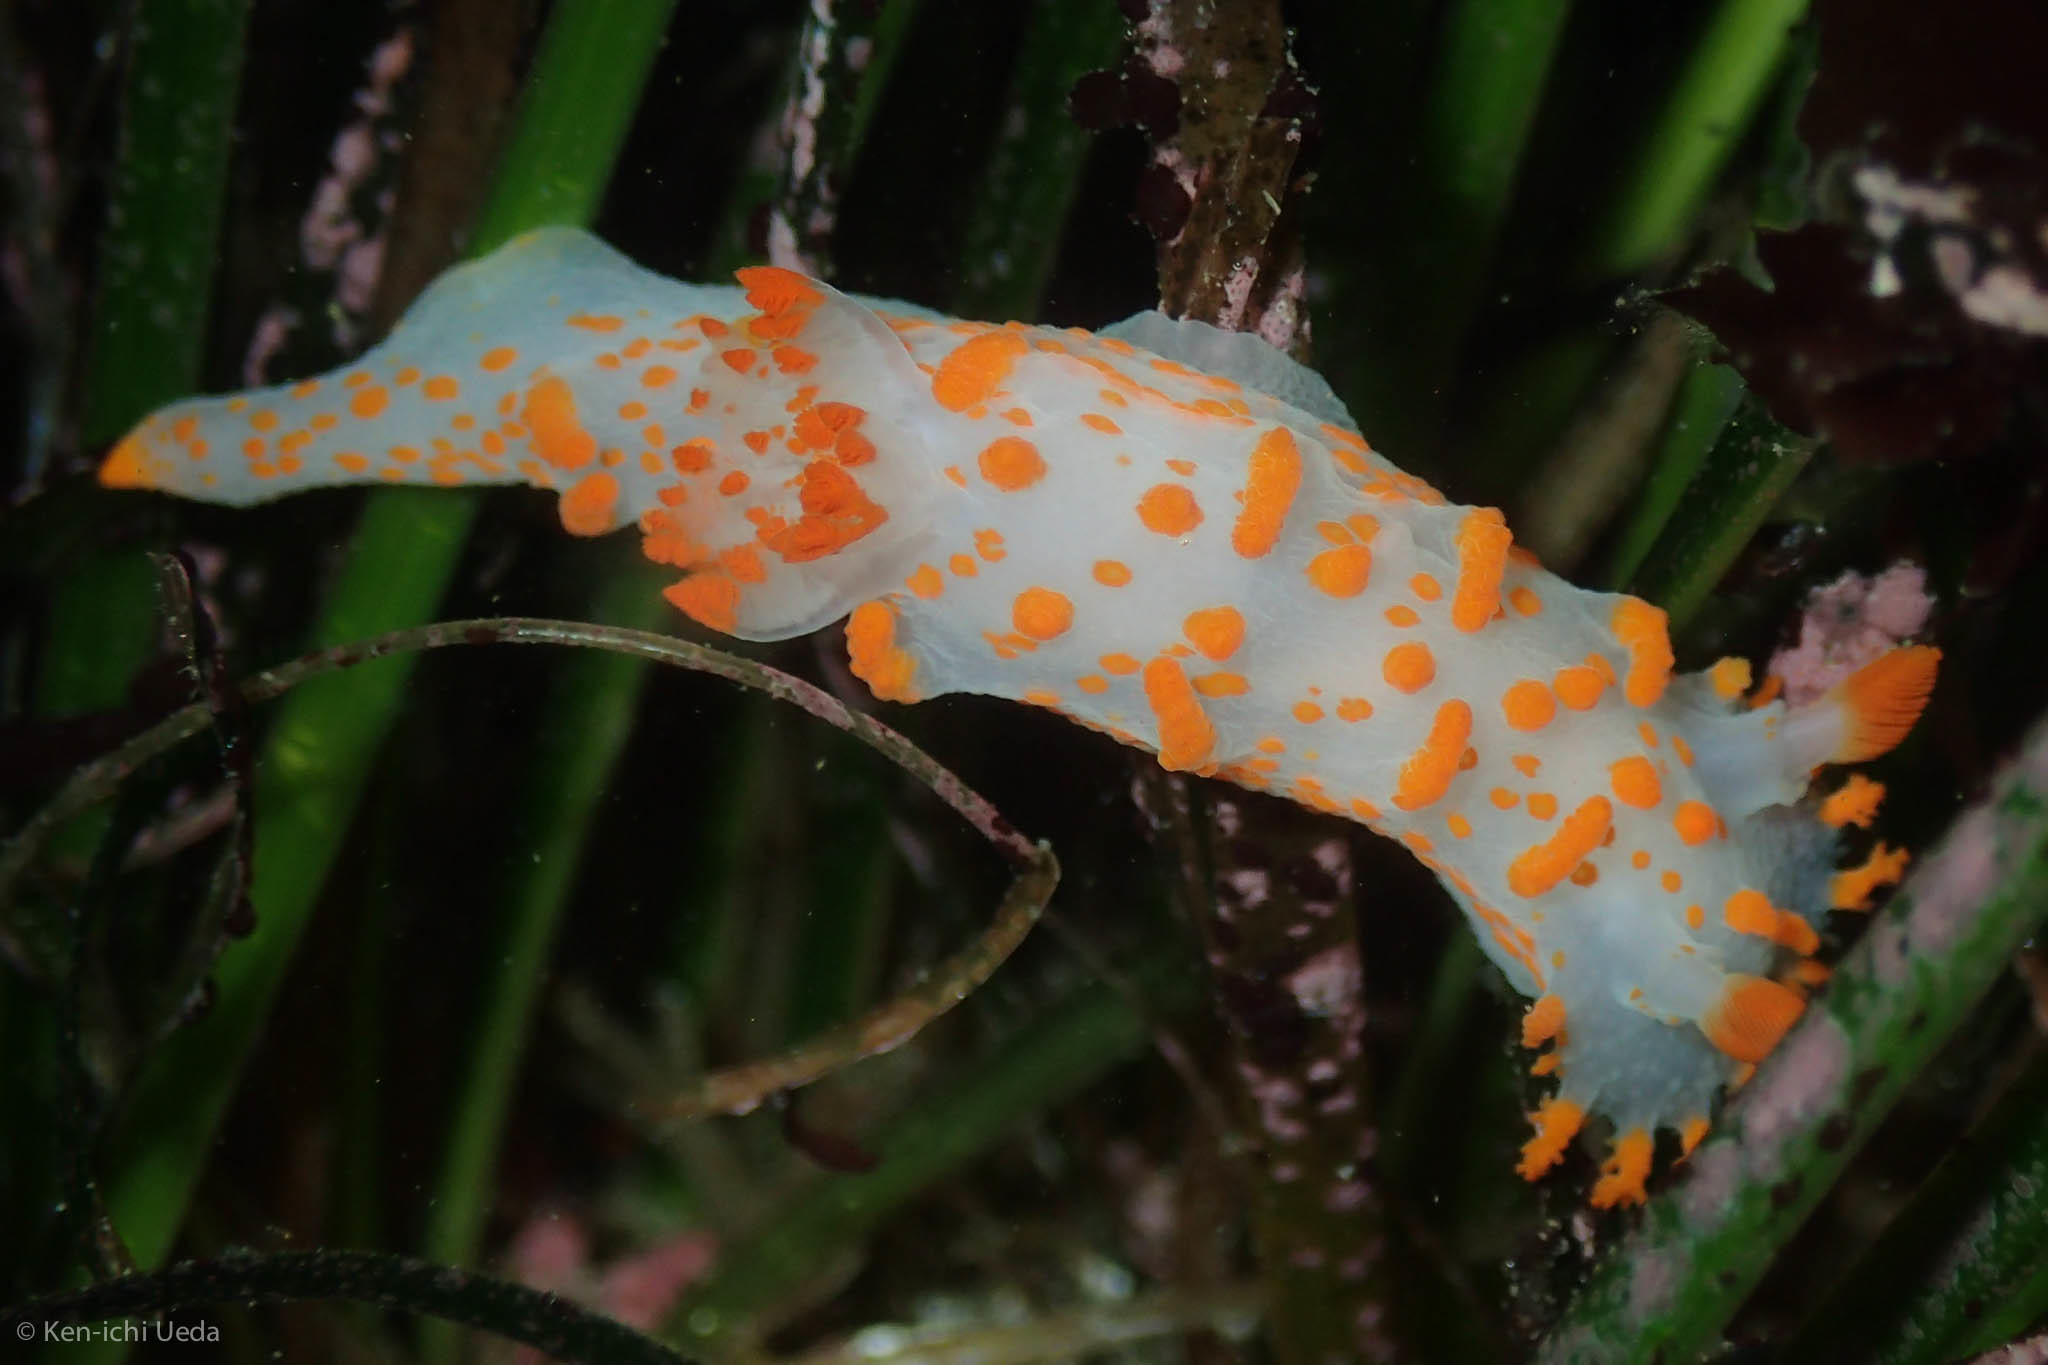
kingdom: Animalia
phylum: Mollusca
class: Gastropoda
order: Nudibranchia
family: Polyceridae
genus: Triopha
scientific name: Triopha catalinae
